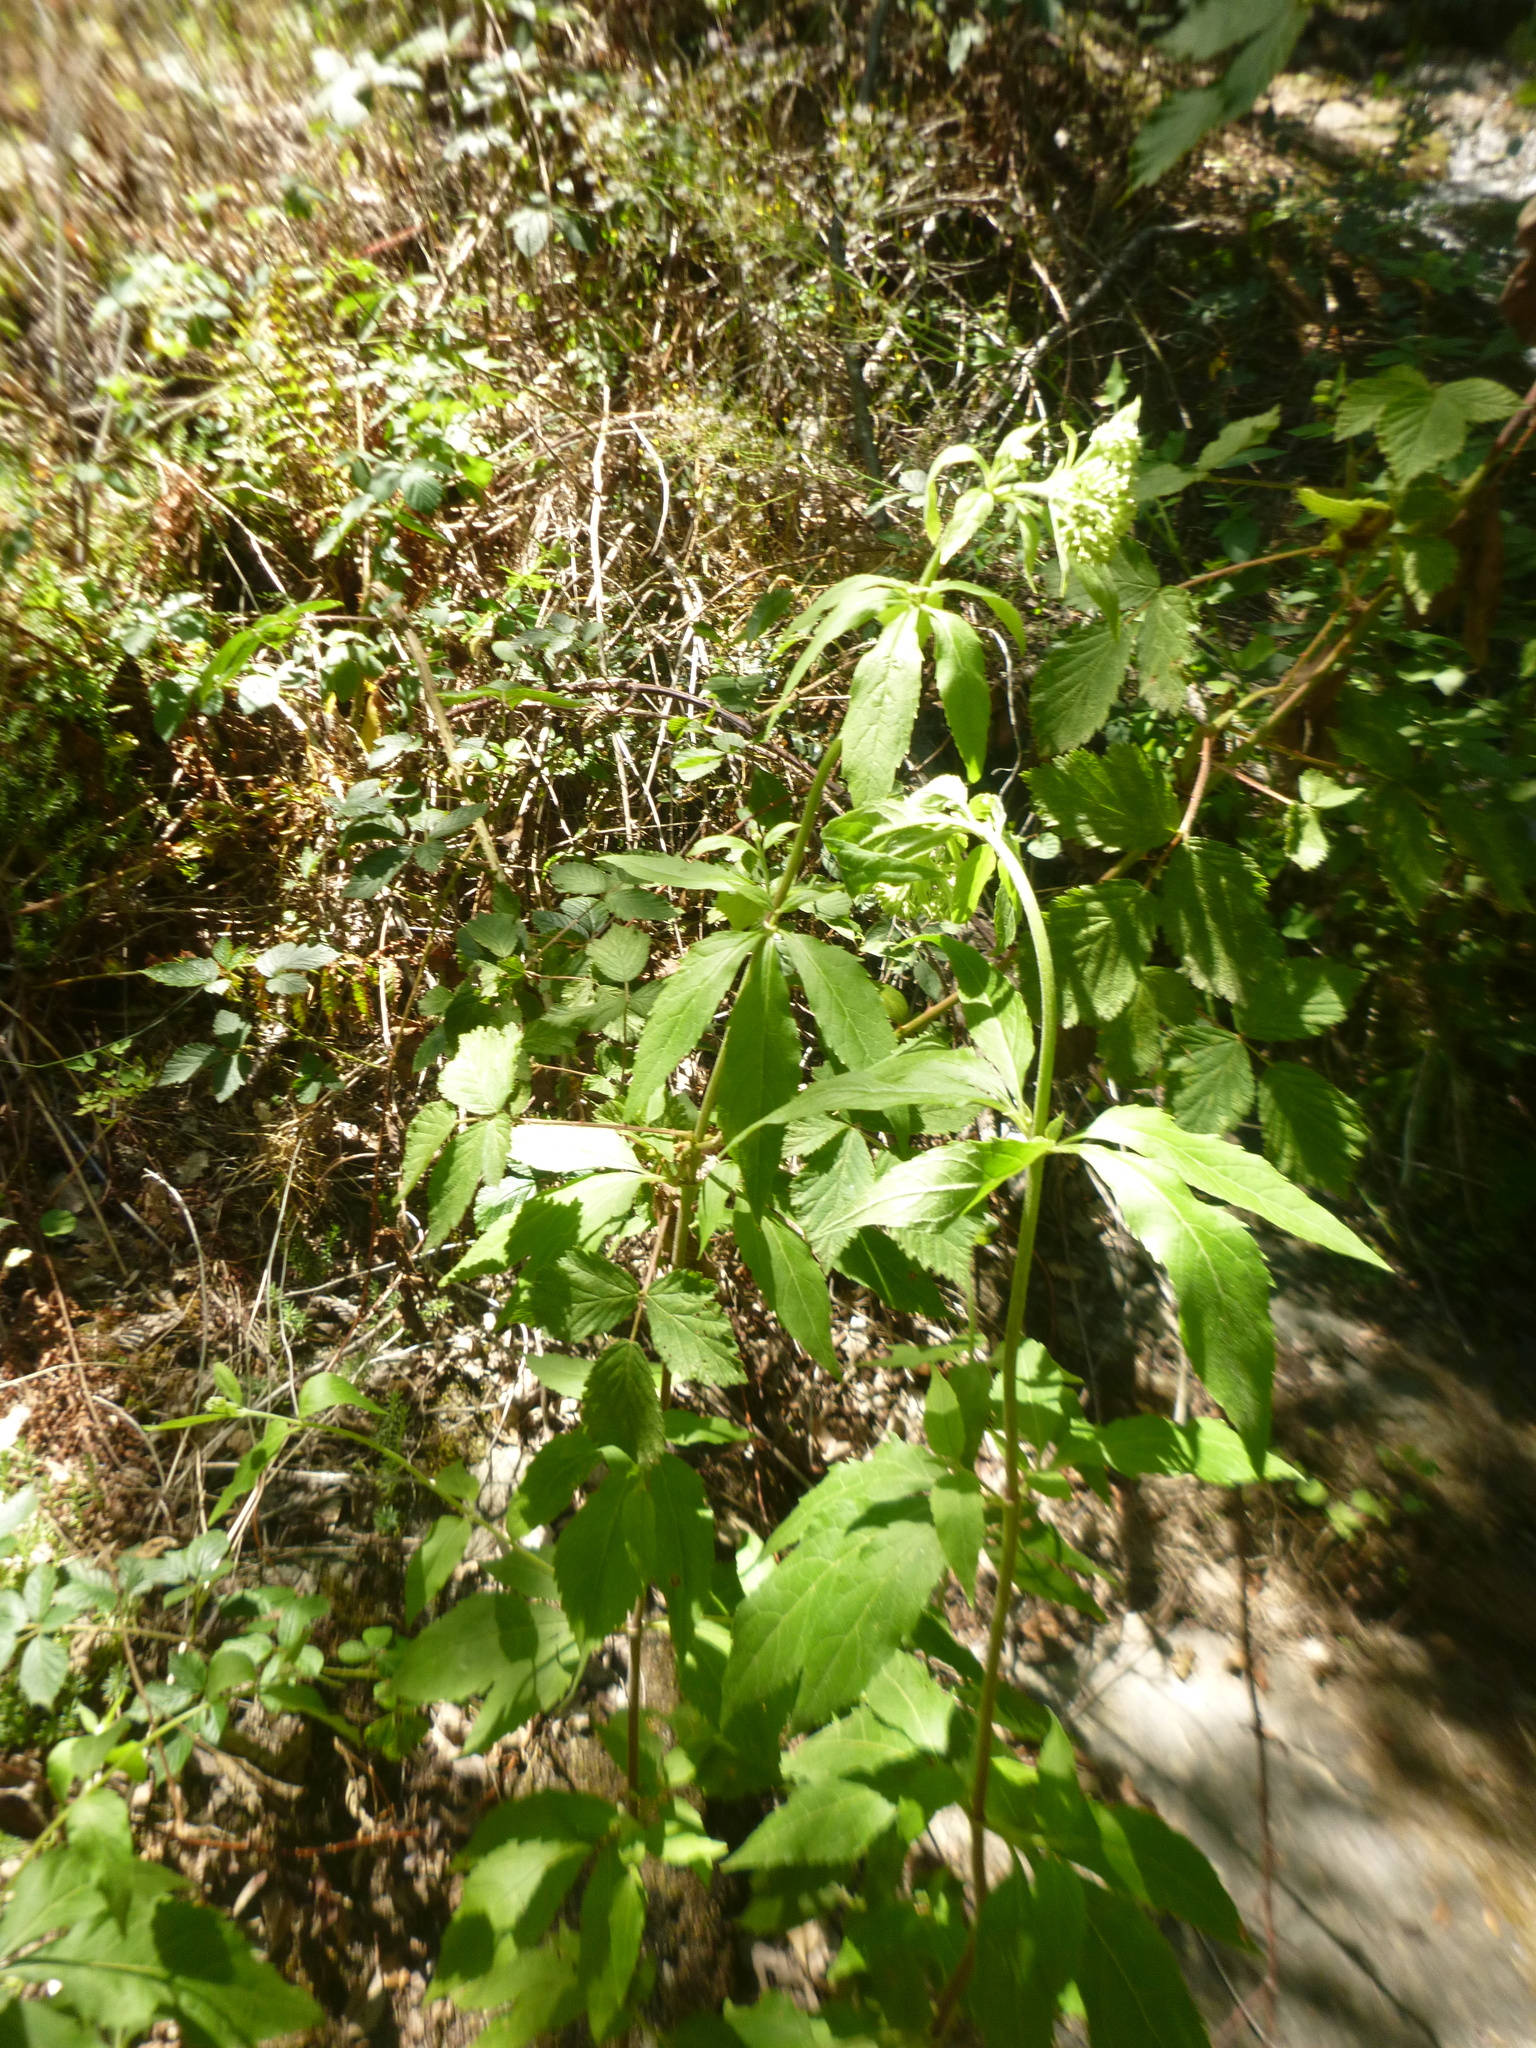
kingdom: Plantae
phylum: Tracheophyta
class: Magnoliopsida
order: Asterales
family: Asteraceae
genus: Eupatorium
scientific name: Eupatorium cannabinum
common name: Hemp-agrimony
